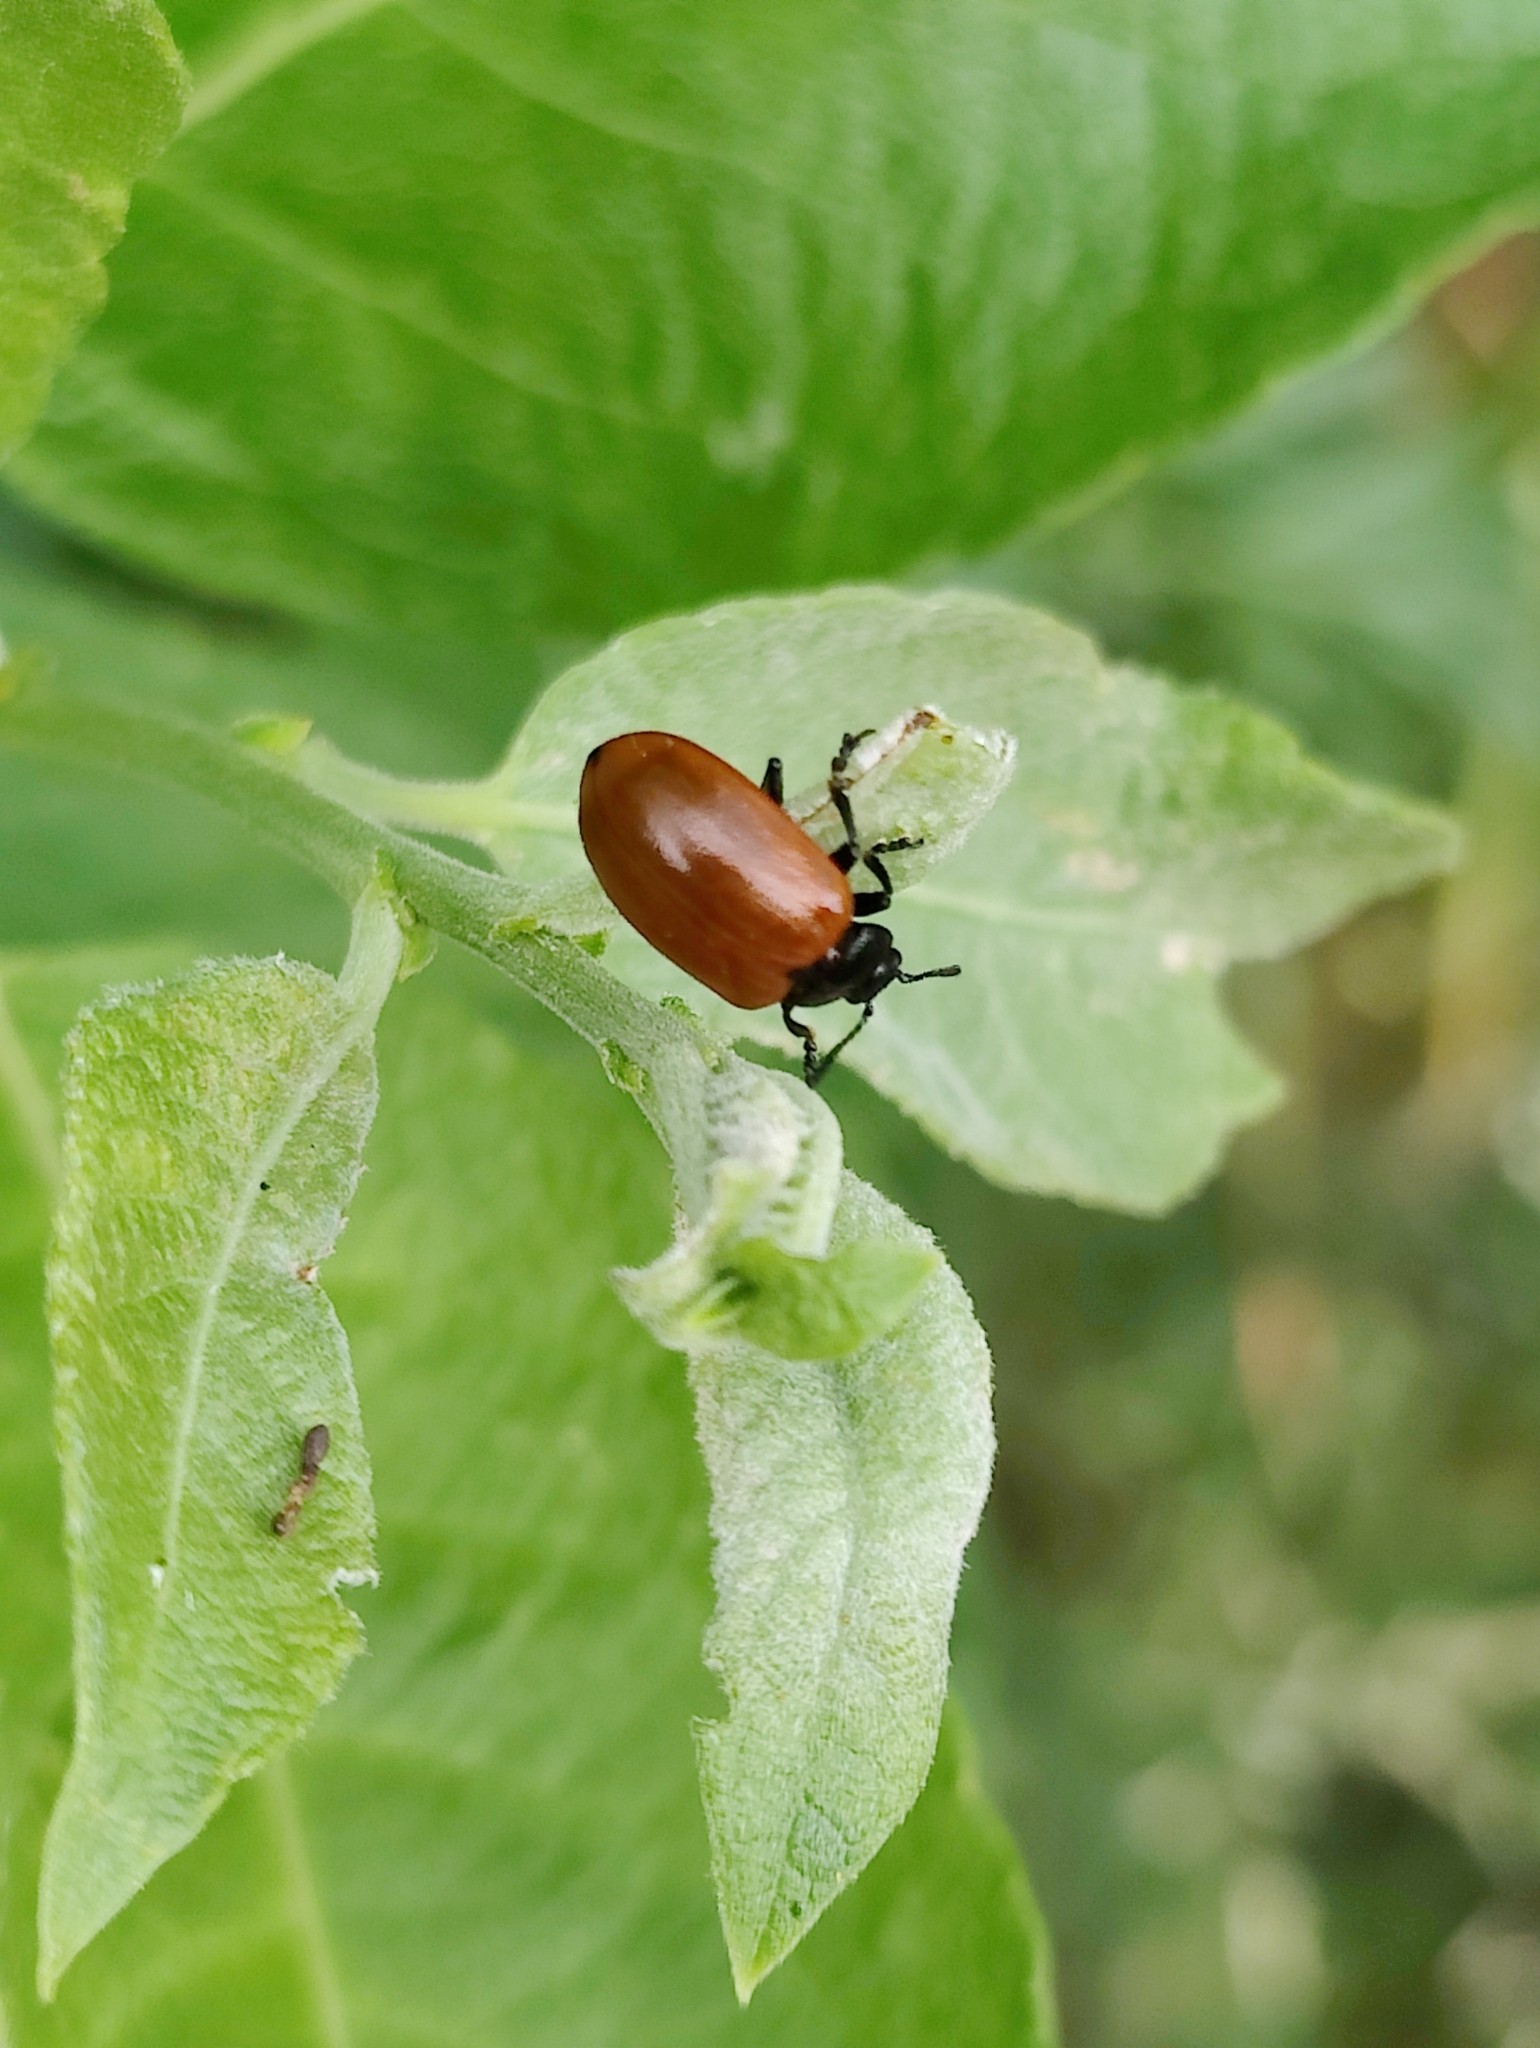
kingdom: Animalia
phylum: Arthropoda
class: Insecta
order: Coleoptera
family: Chrysomelidae
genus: Chrysomela
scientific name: Chrysomela populi
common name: Red poplar leaf beetle
